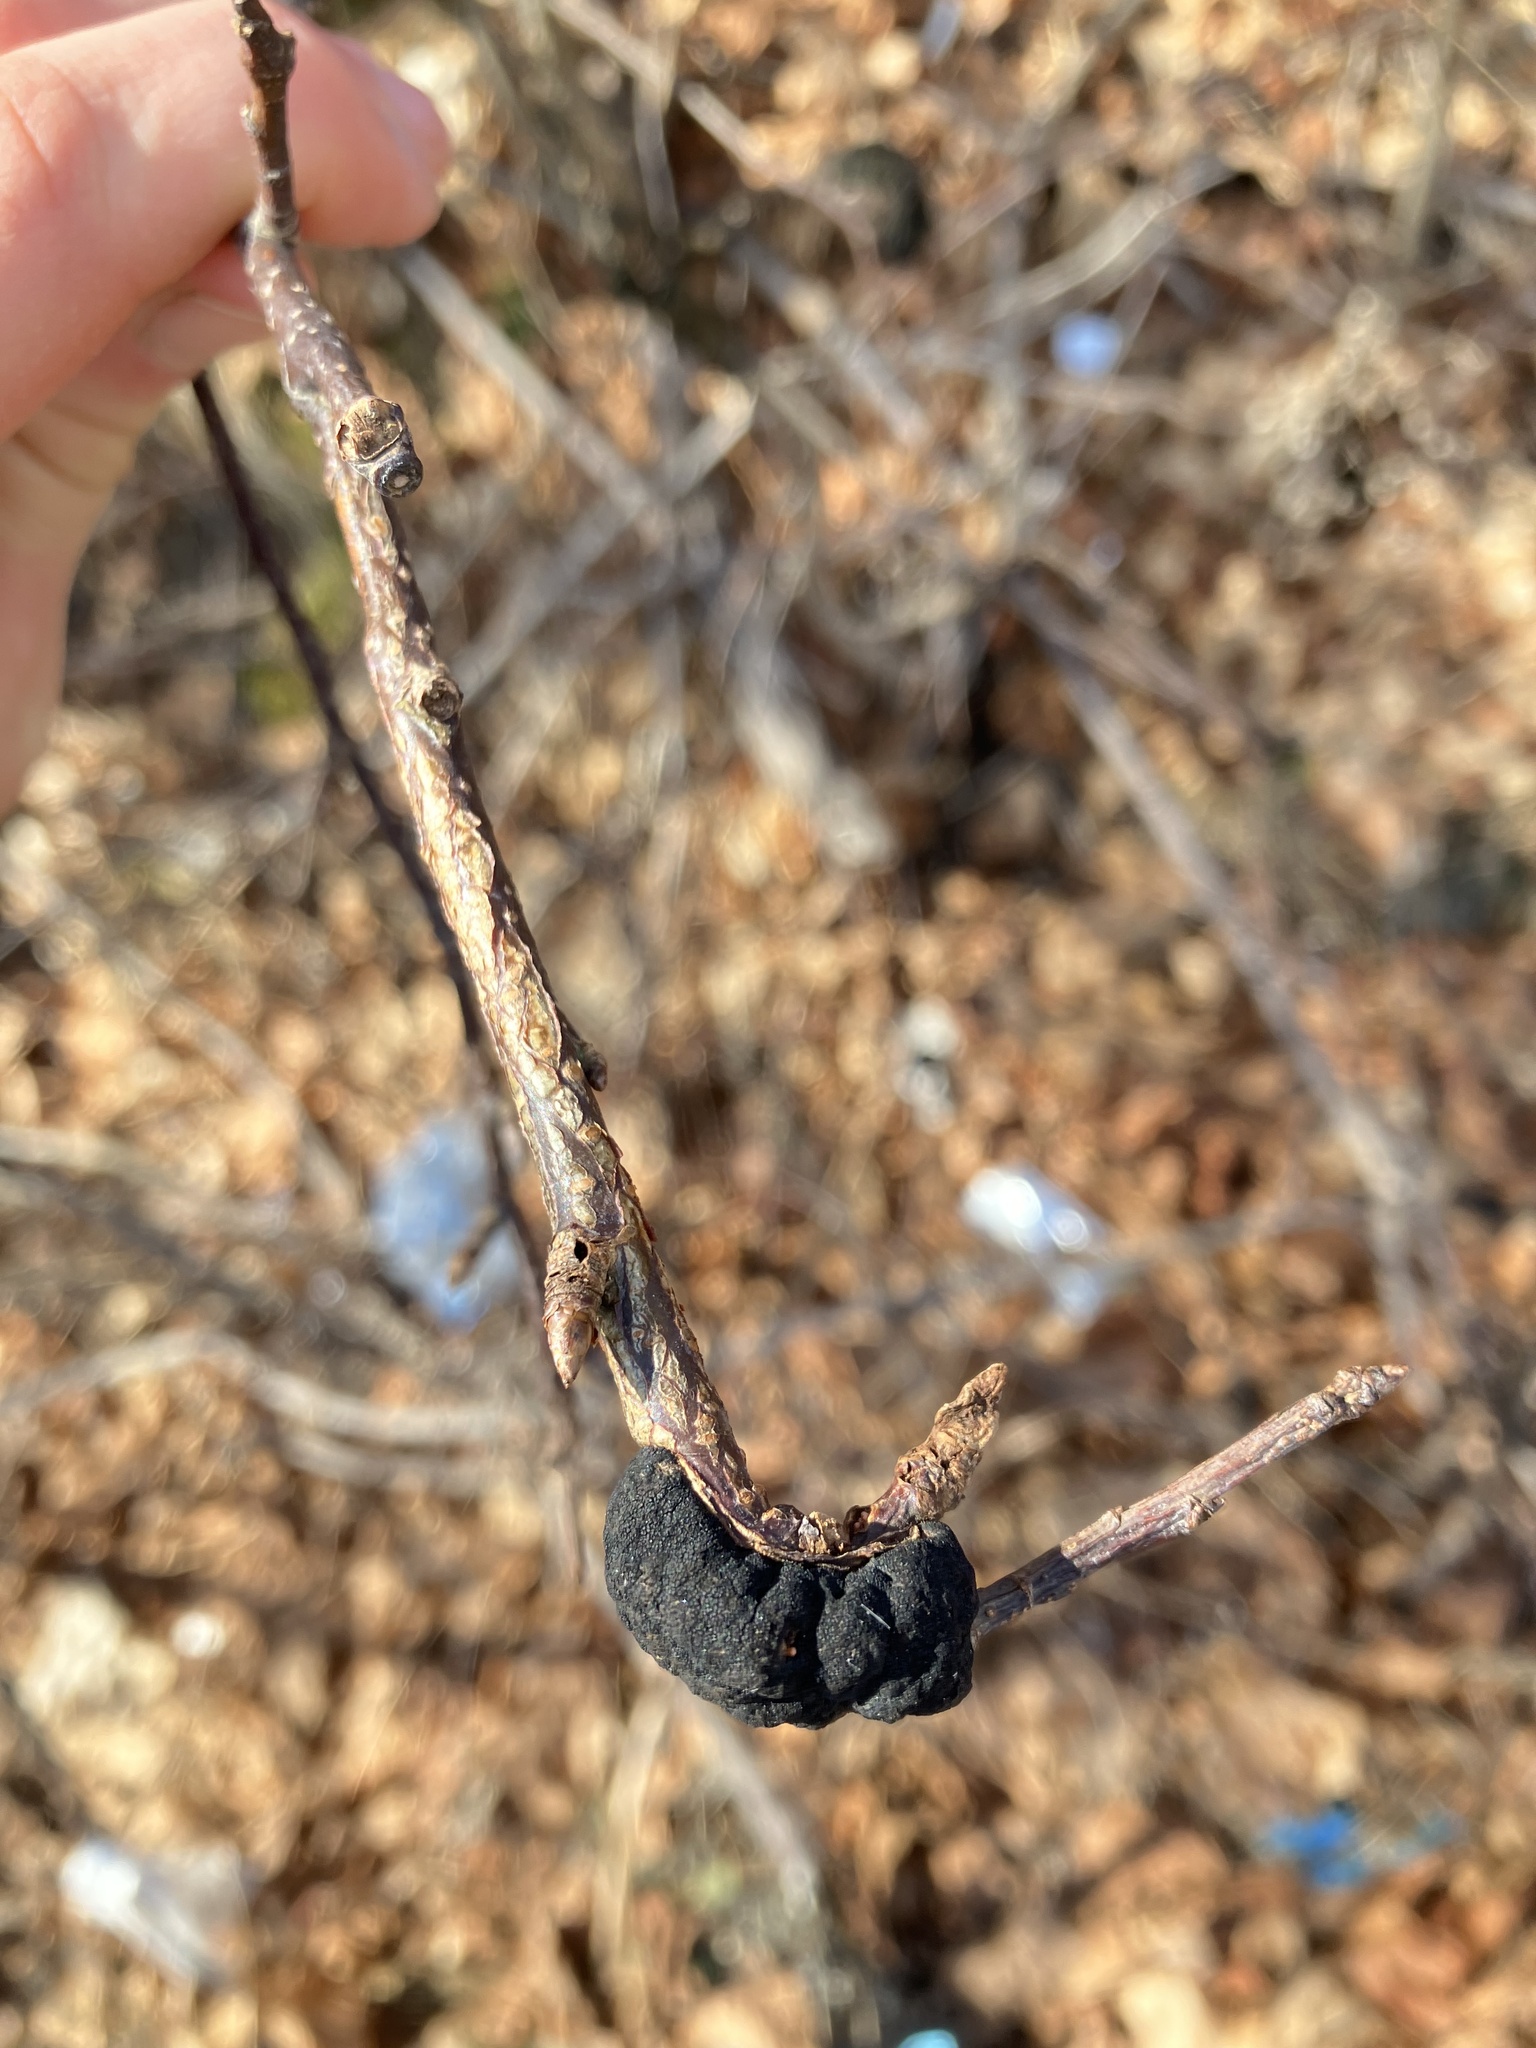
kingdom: Fungi
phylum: Ascomycota
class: Dothideomycetes
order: Venturiales
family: Venturiaceae
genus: Apiosporina
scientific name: Apiosporina morbosa
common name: Black knot
